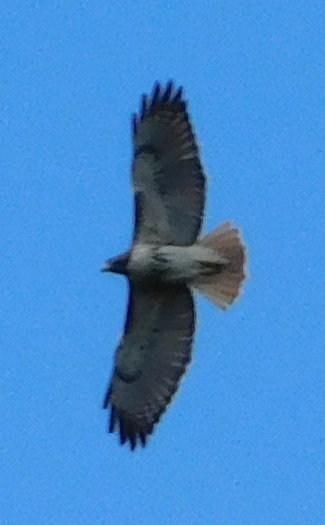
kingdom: Animalia
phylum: Chordata
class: Aves
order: Accipitriformes
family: Accipitridae
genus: Buteo
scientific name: Buteo jamaicensis
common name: Red-tailed hawk
